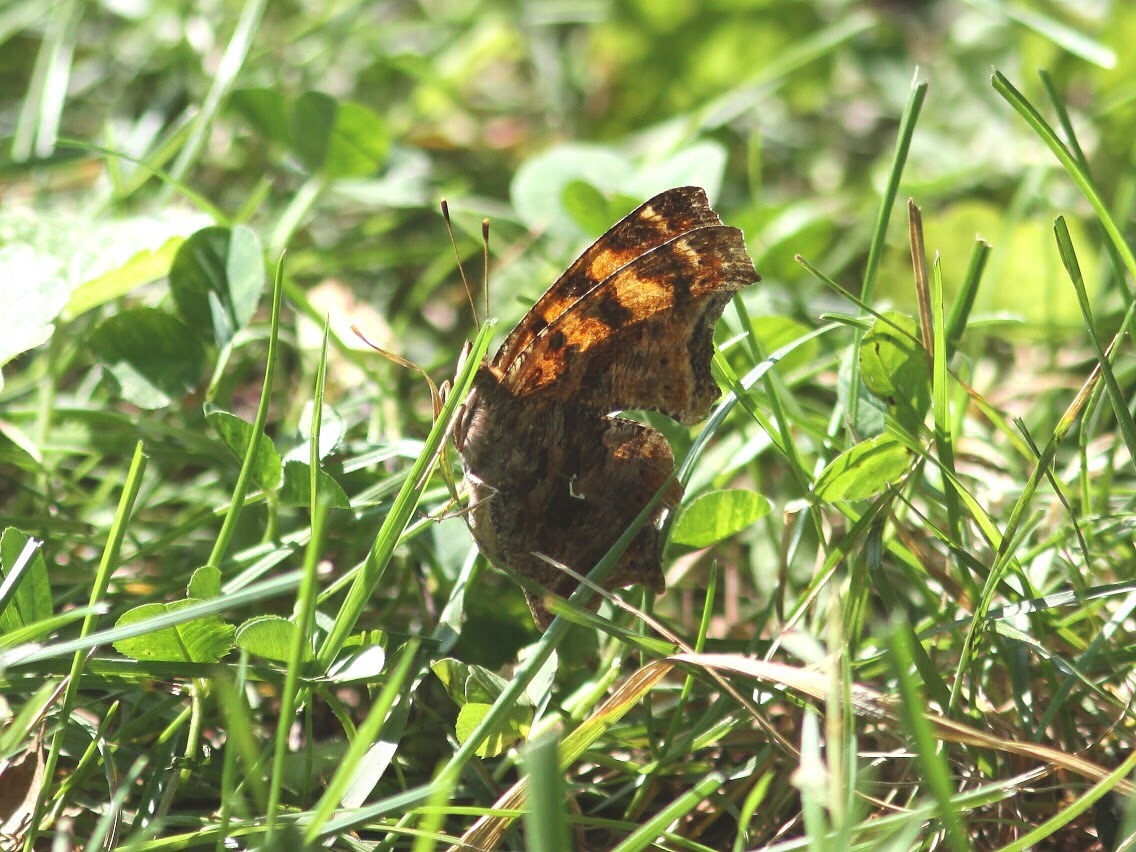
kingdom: Animalia
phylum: Arthropoda
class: Insecta
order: Lepidoptera
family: Nymphalidae
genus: Polygonia
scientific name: Polygonia comma
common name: Eastern comma
